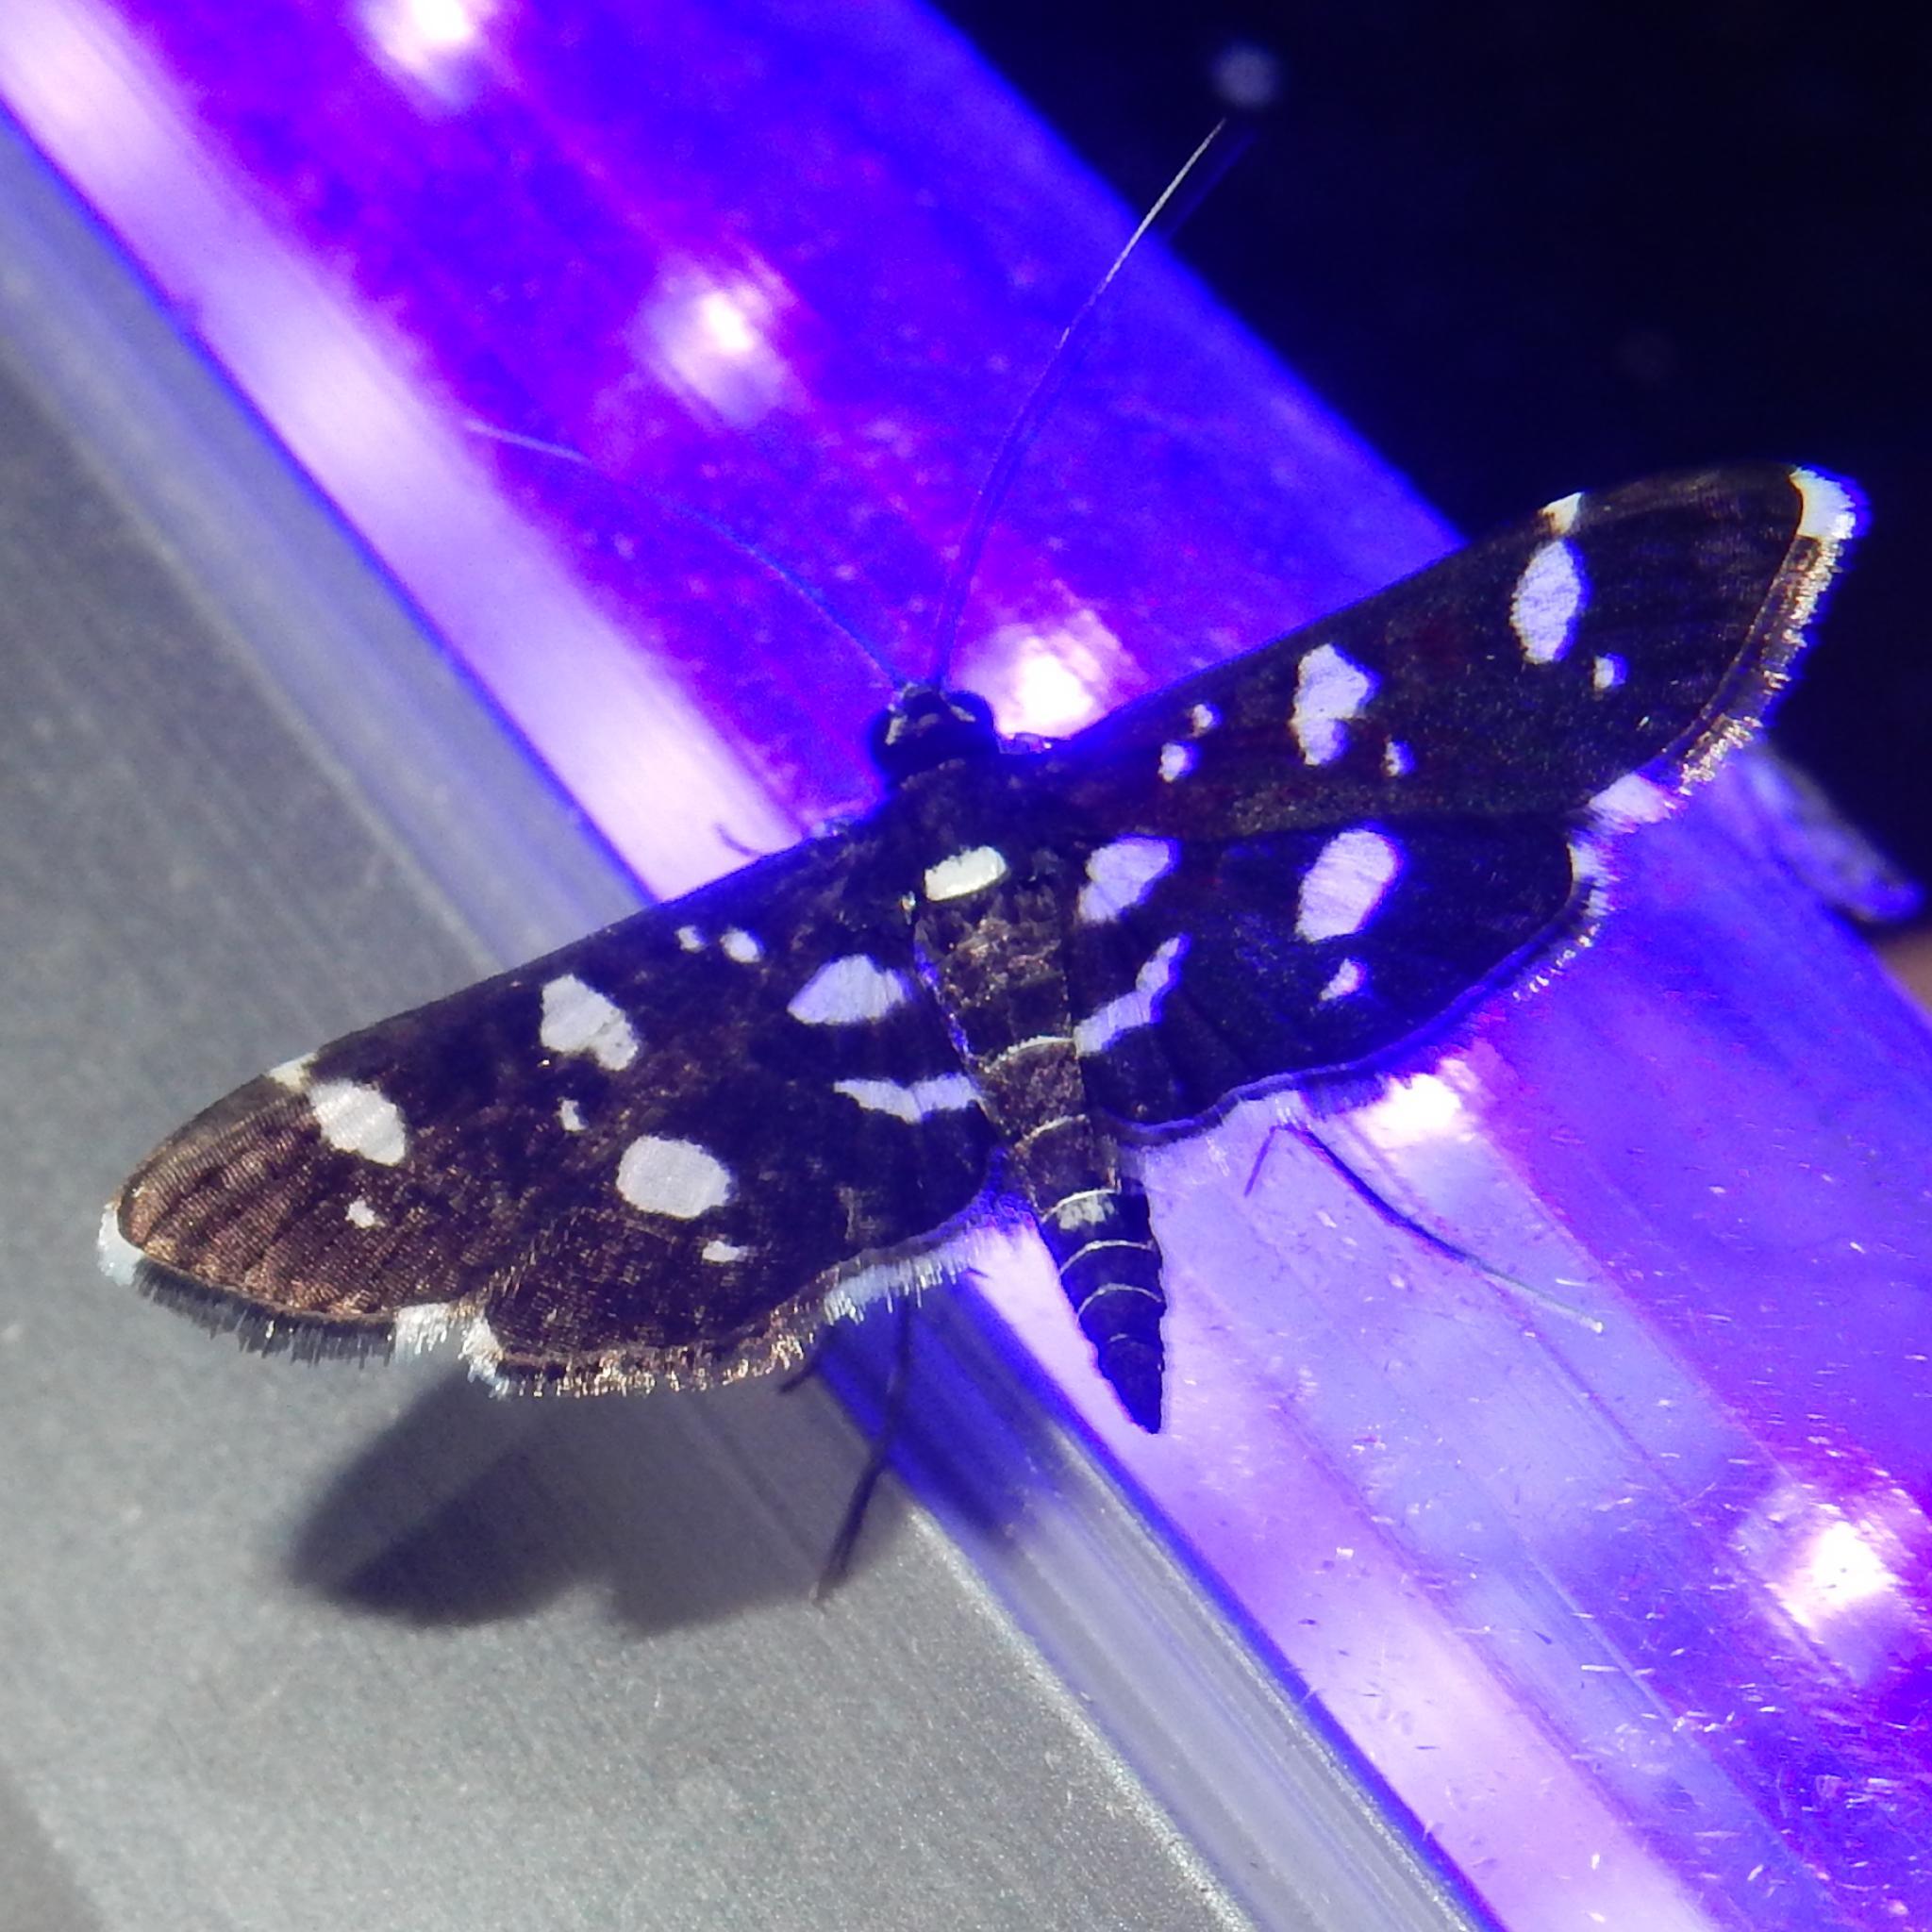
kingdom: Animalia
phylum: Arthropoda
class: Insecta
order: Lepidoptera
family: Crambidae
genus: Bocchoris
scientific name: Bocchoris inspersalis
